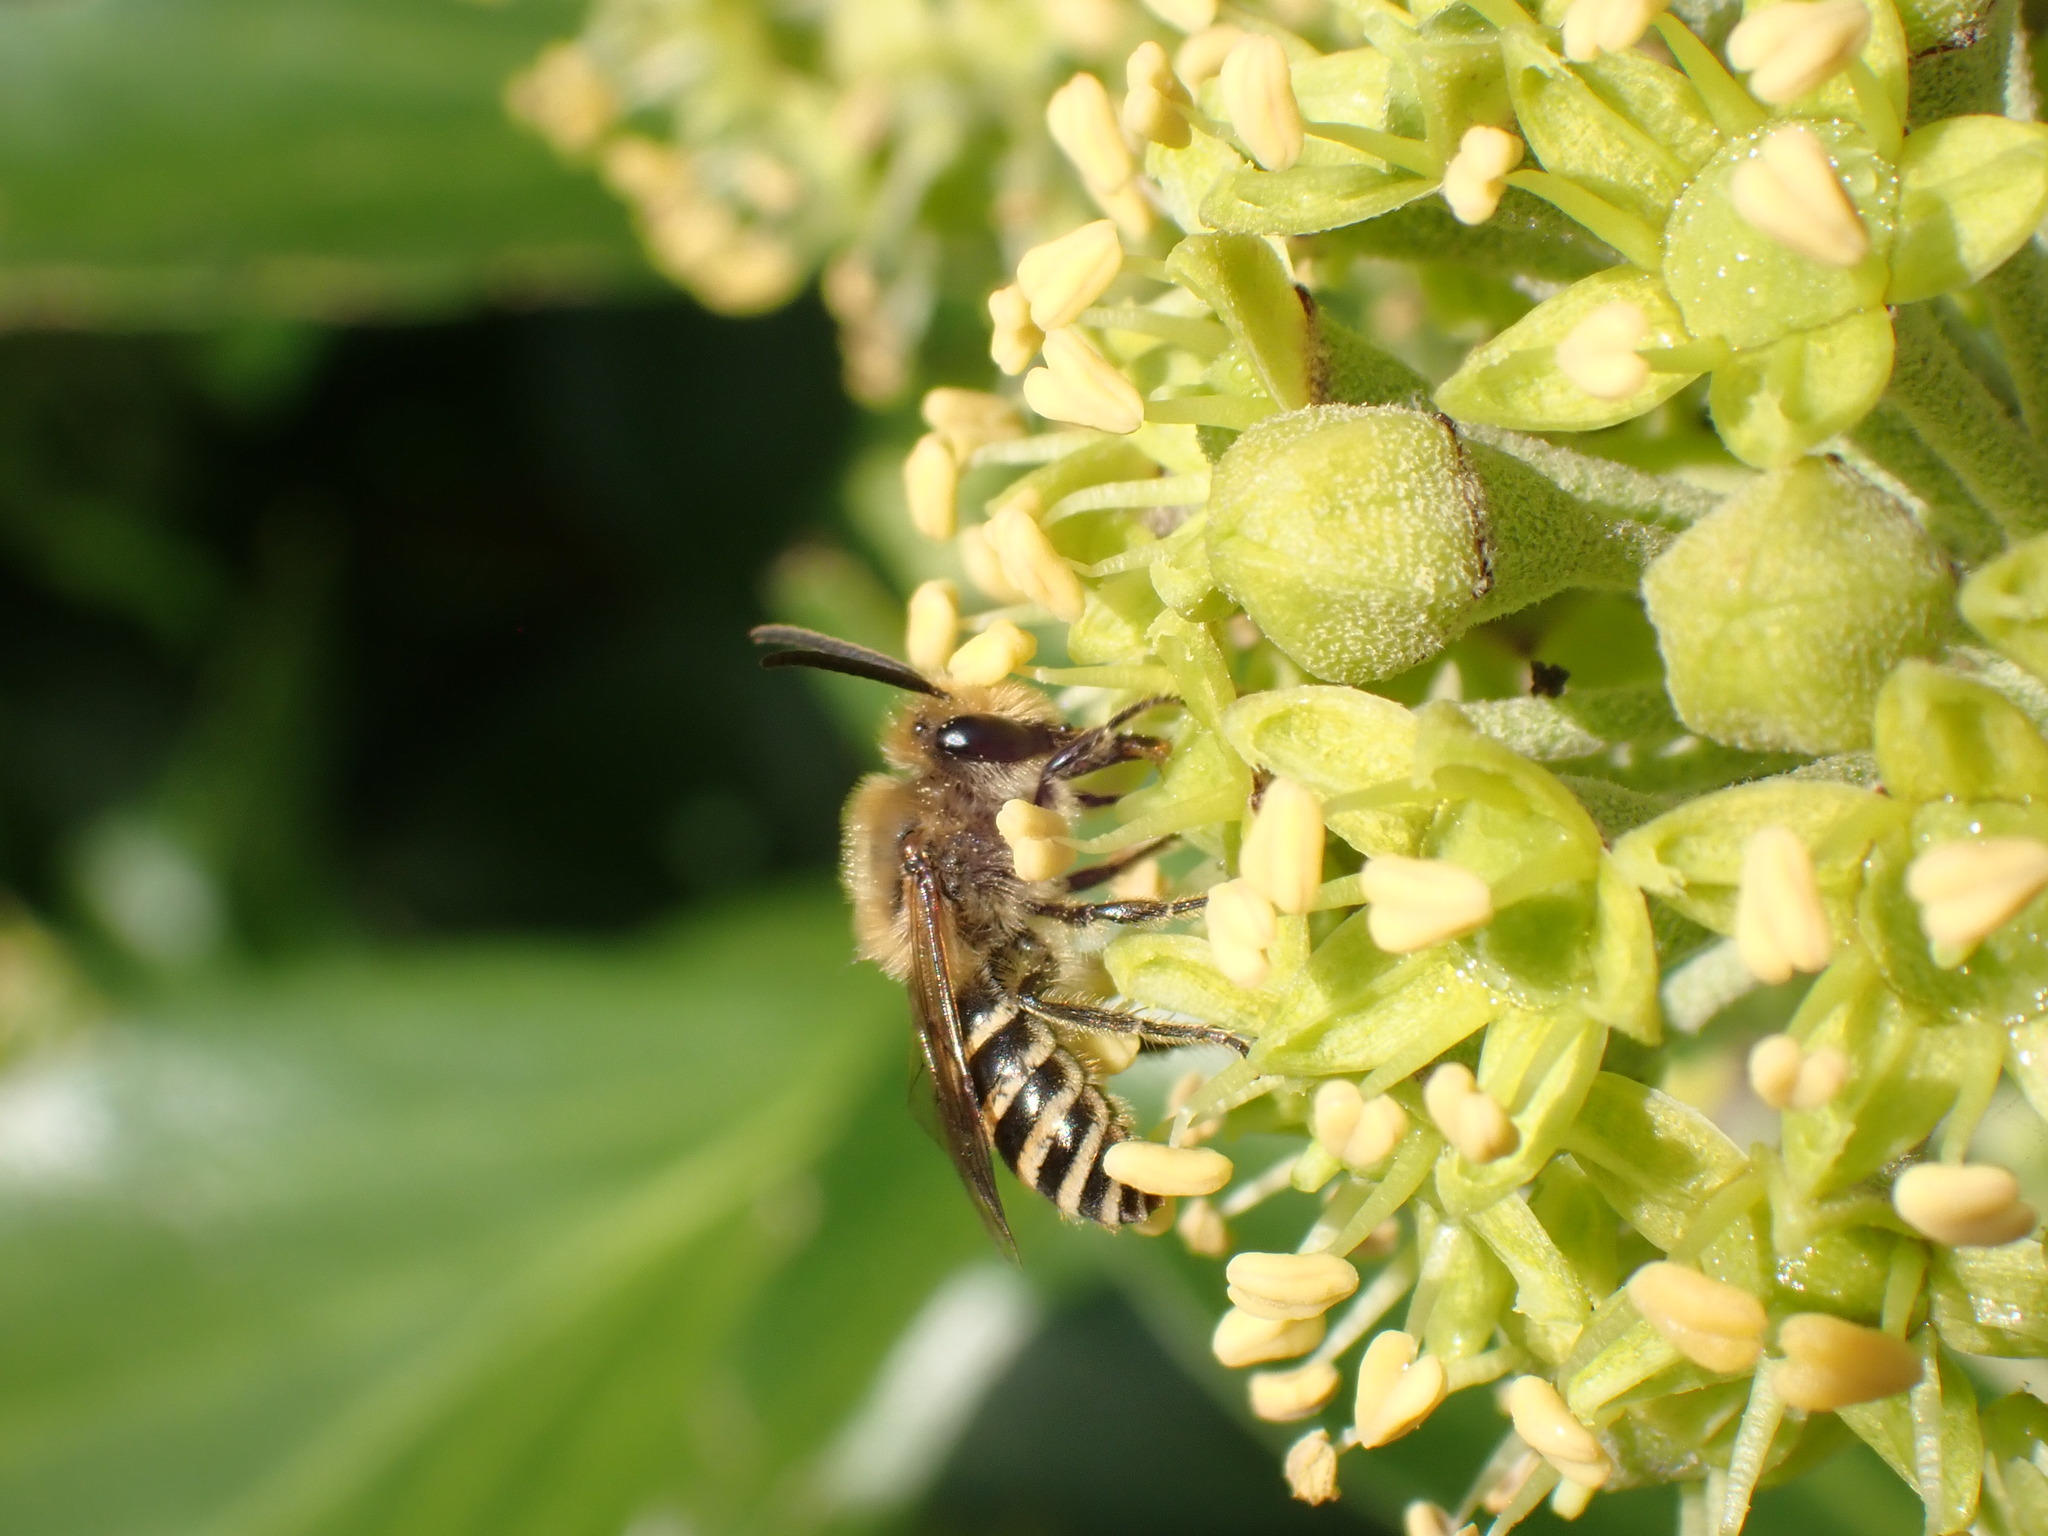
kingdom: Animalia
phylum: Arthropoda
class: Insecta
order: Hymenoptera
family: Colletidae
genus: Colletes
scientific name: Colletes hederae
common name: Ivy bee
